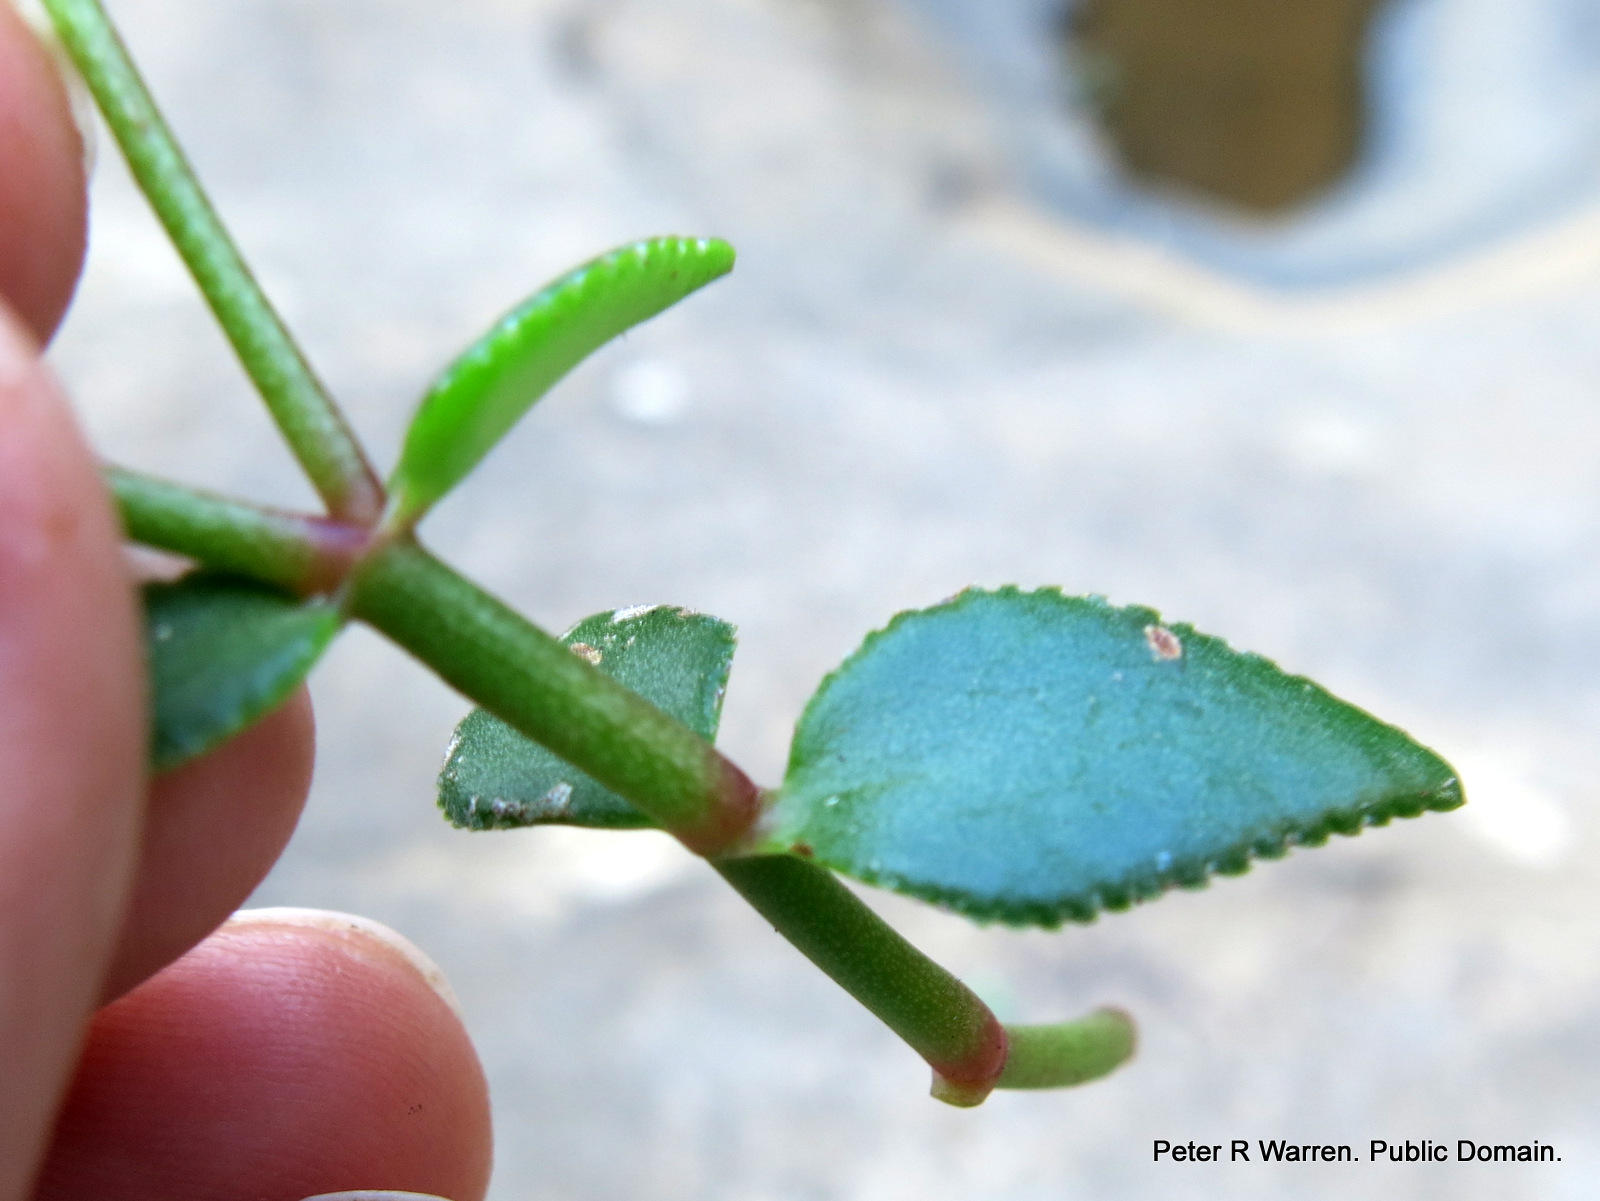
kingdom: Plantae
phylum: Tracheophyta
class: Magnoliopsida
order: Saxifragales
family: Crassulaceae
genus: Crassula
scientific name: Crassula sarmentosa
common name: Jade-tree
